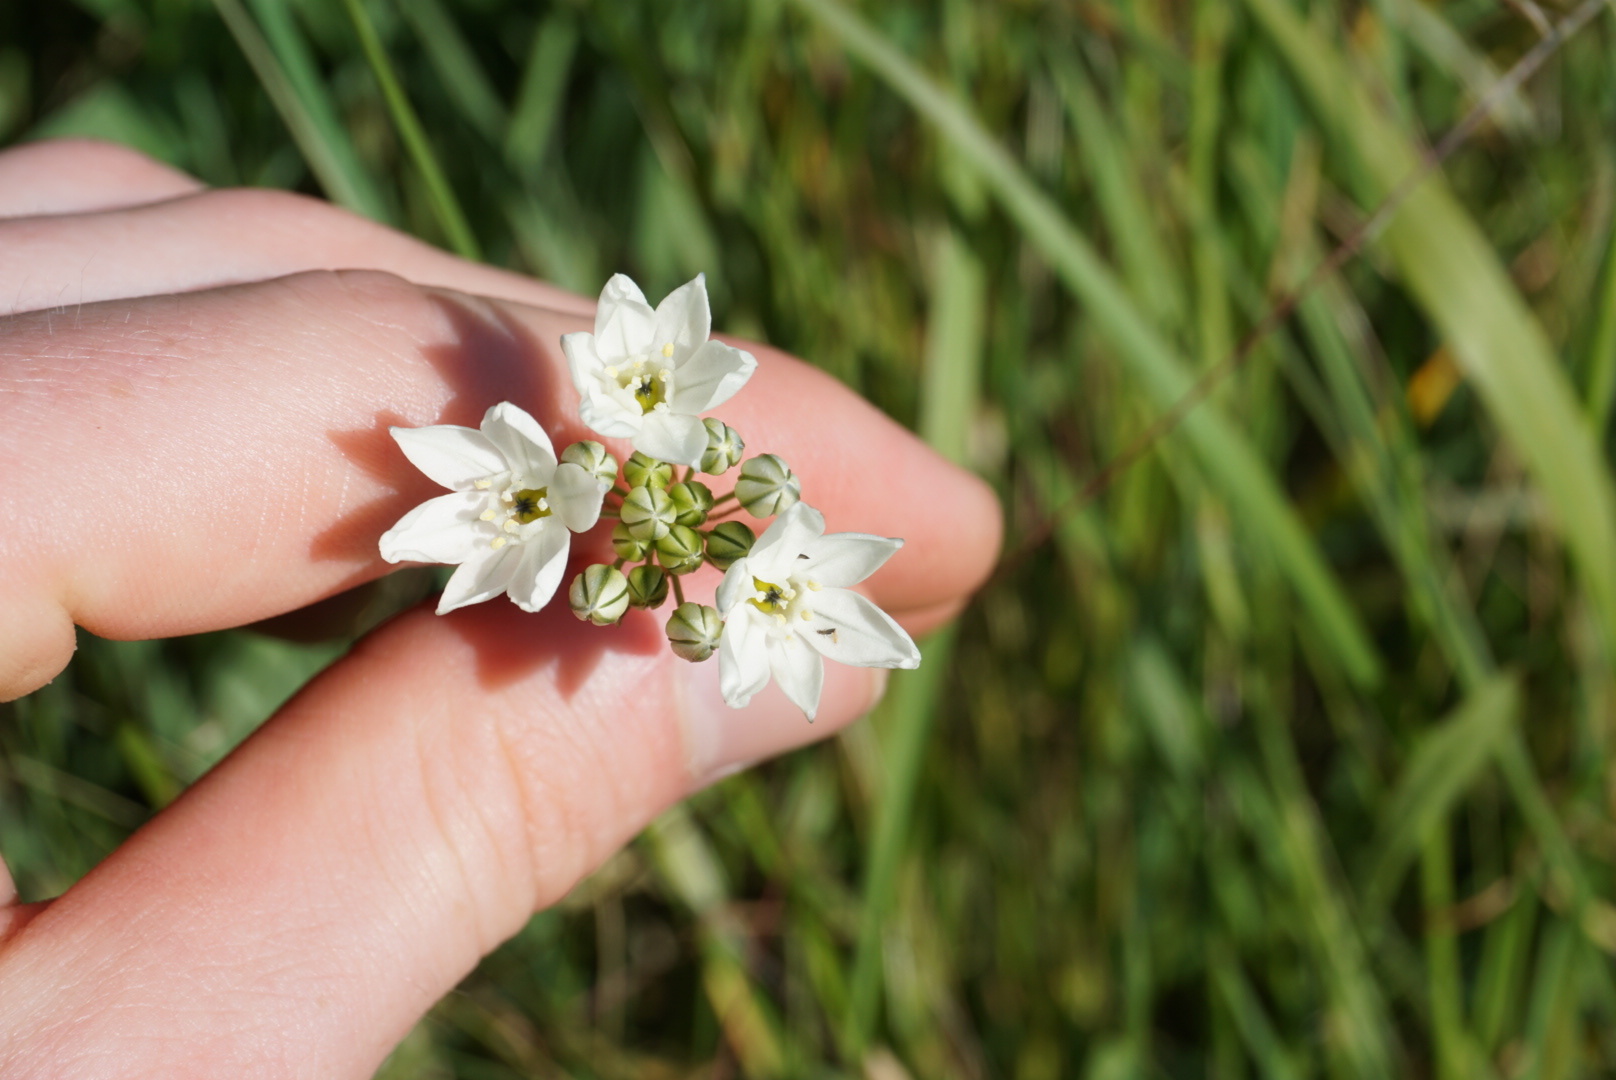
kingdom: Plantae
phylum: Tracheophyta
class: Liliopsida
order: Asparagales
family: Asparagaceae
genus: Triteleia
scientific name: Triteleia hyacinthina
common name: White brodiaea
